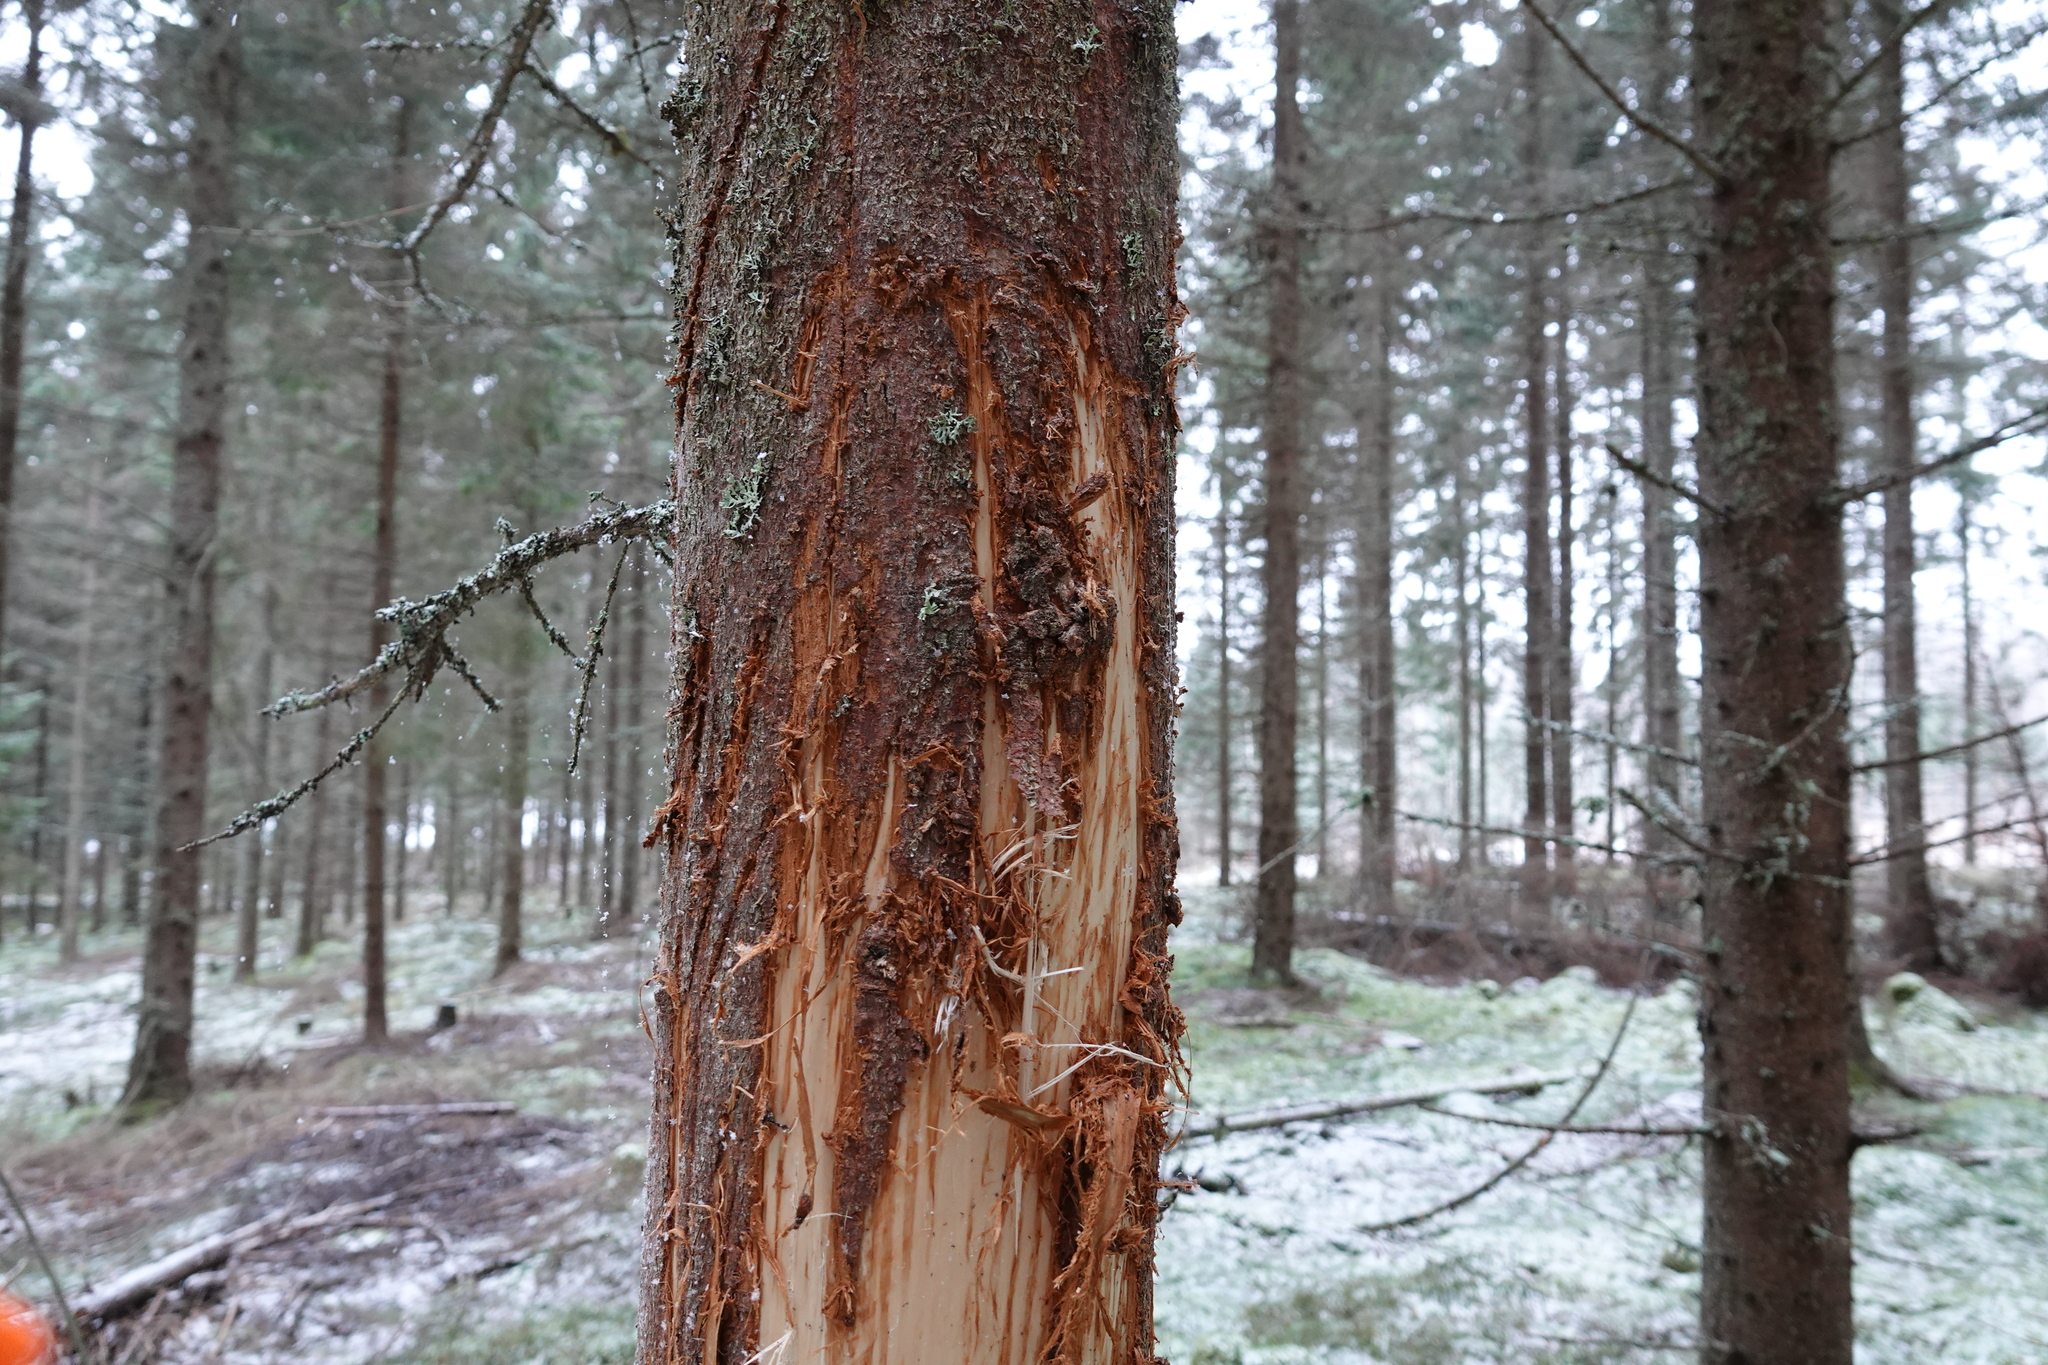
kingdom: Animalia
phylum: Chordata
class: Mammalia
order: Artiodactyla
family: Cervidae
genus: Alces
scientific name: Alces alces
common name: Moose
